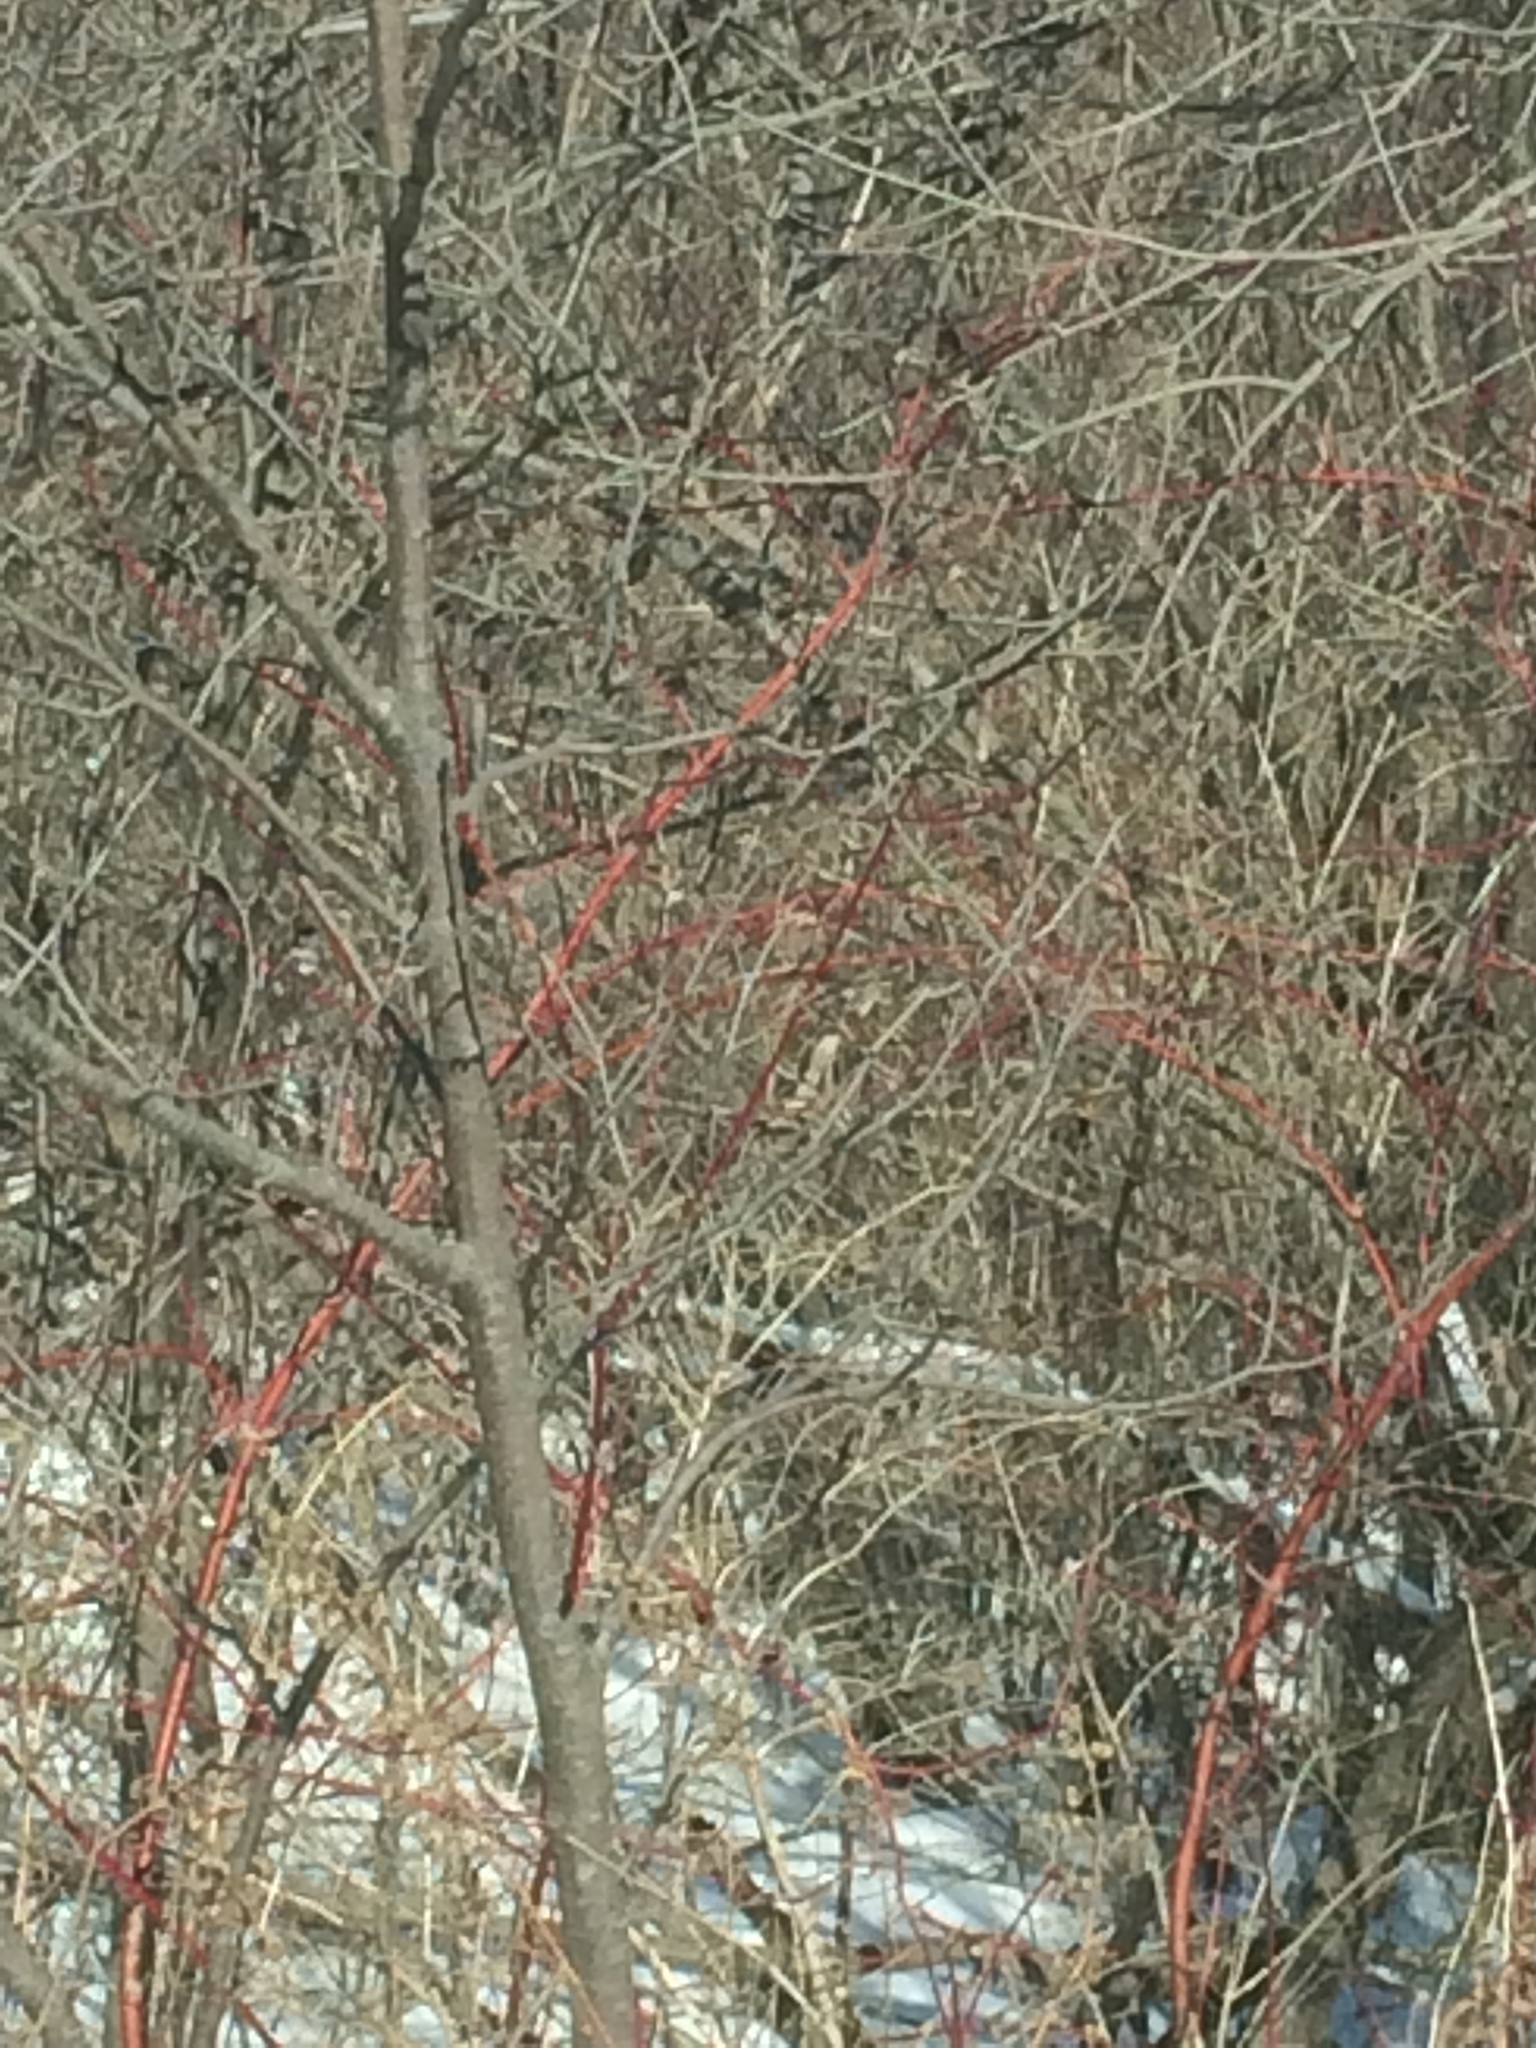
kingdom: Plantae
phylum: Tracheophyta
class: Magnoliopsida
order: Cornales
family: Cornaceae
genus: Cornus
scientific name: Cornus sericea
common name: Red-osier dogwood
